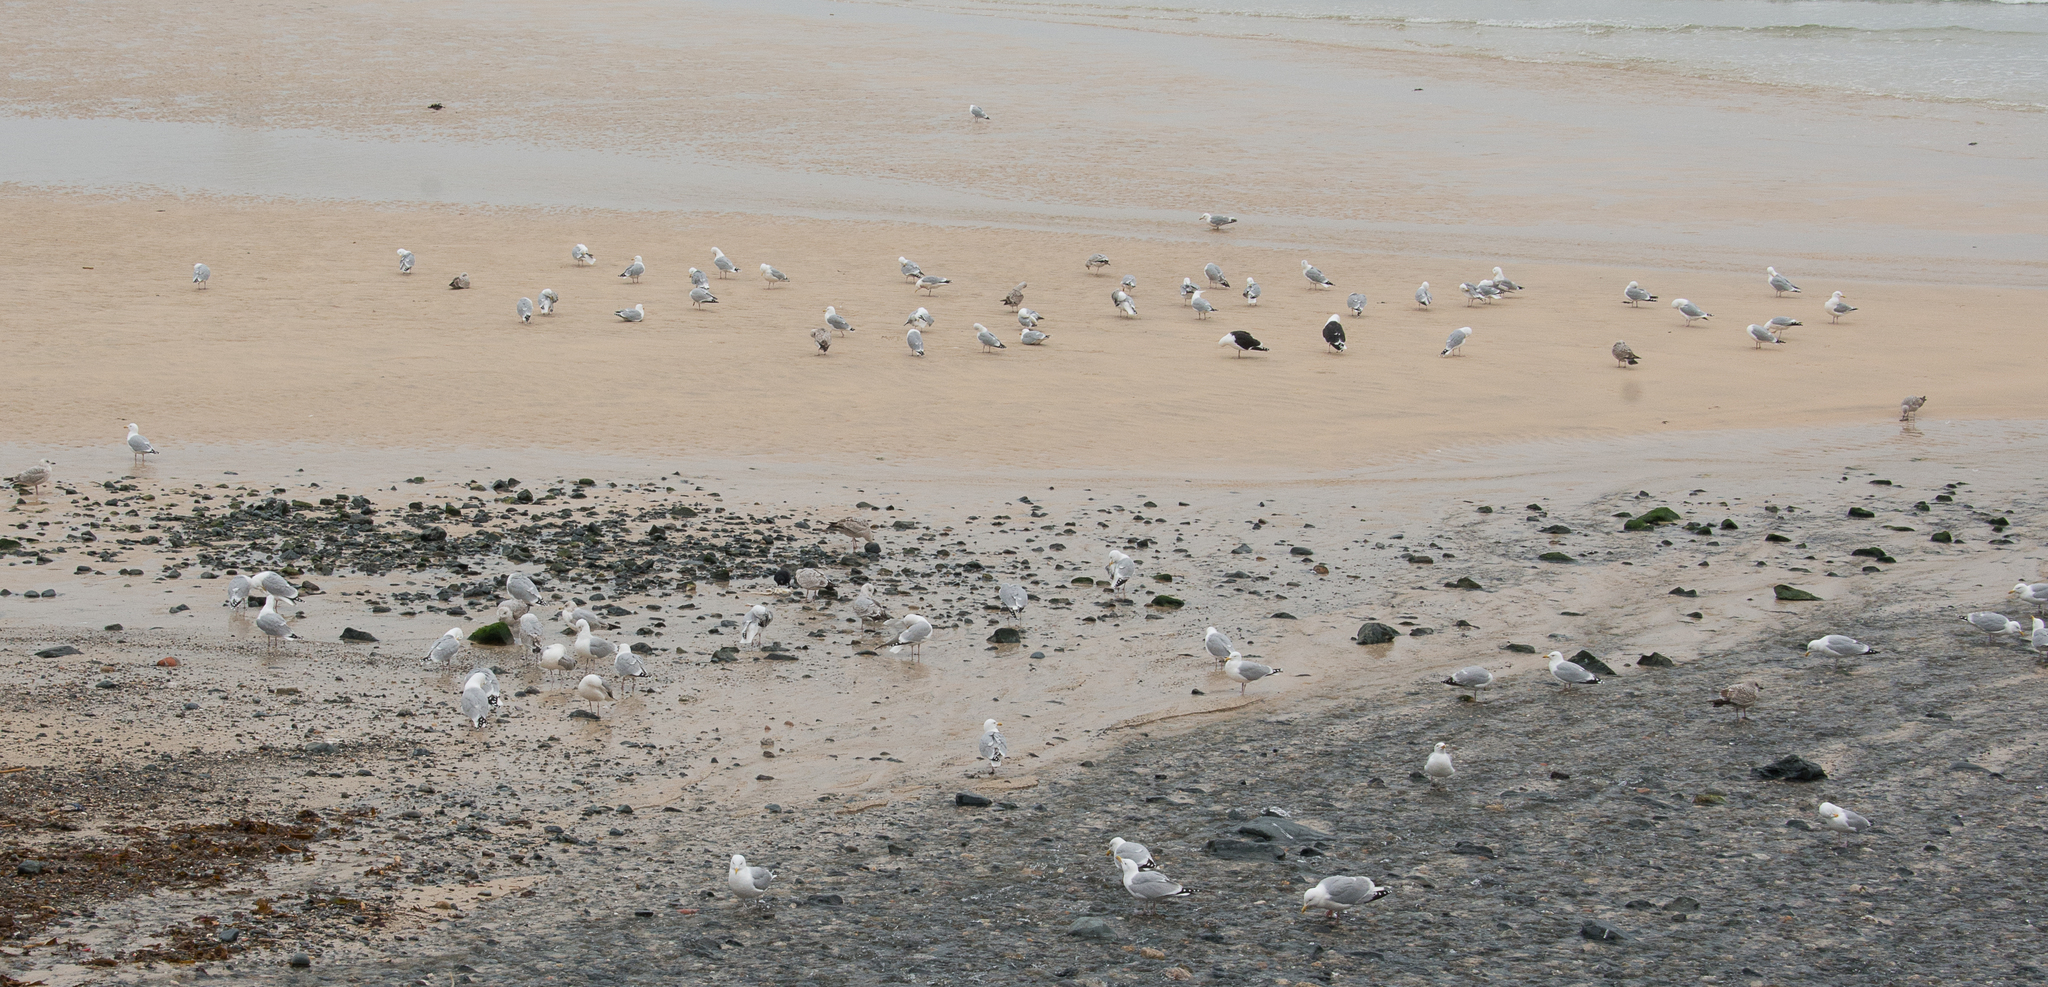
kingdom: Animalia
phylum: Chordata
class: Aves
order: Charadriiformes
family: Laridae
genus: Larus
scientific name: Larus argentatus
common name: Herring gull
